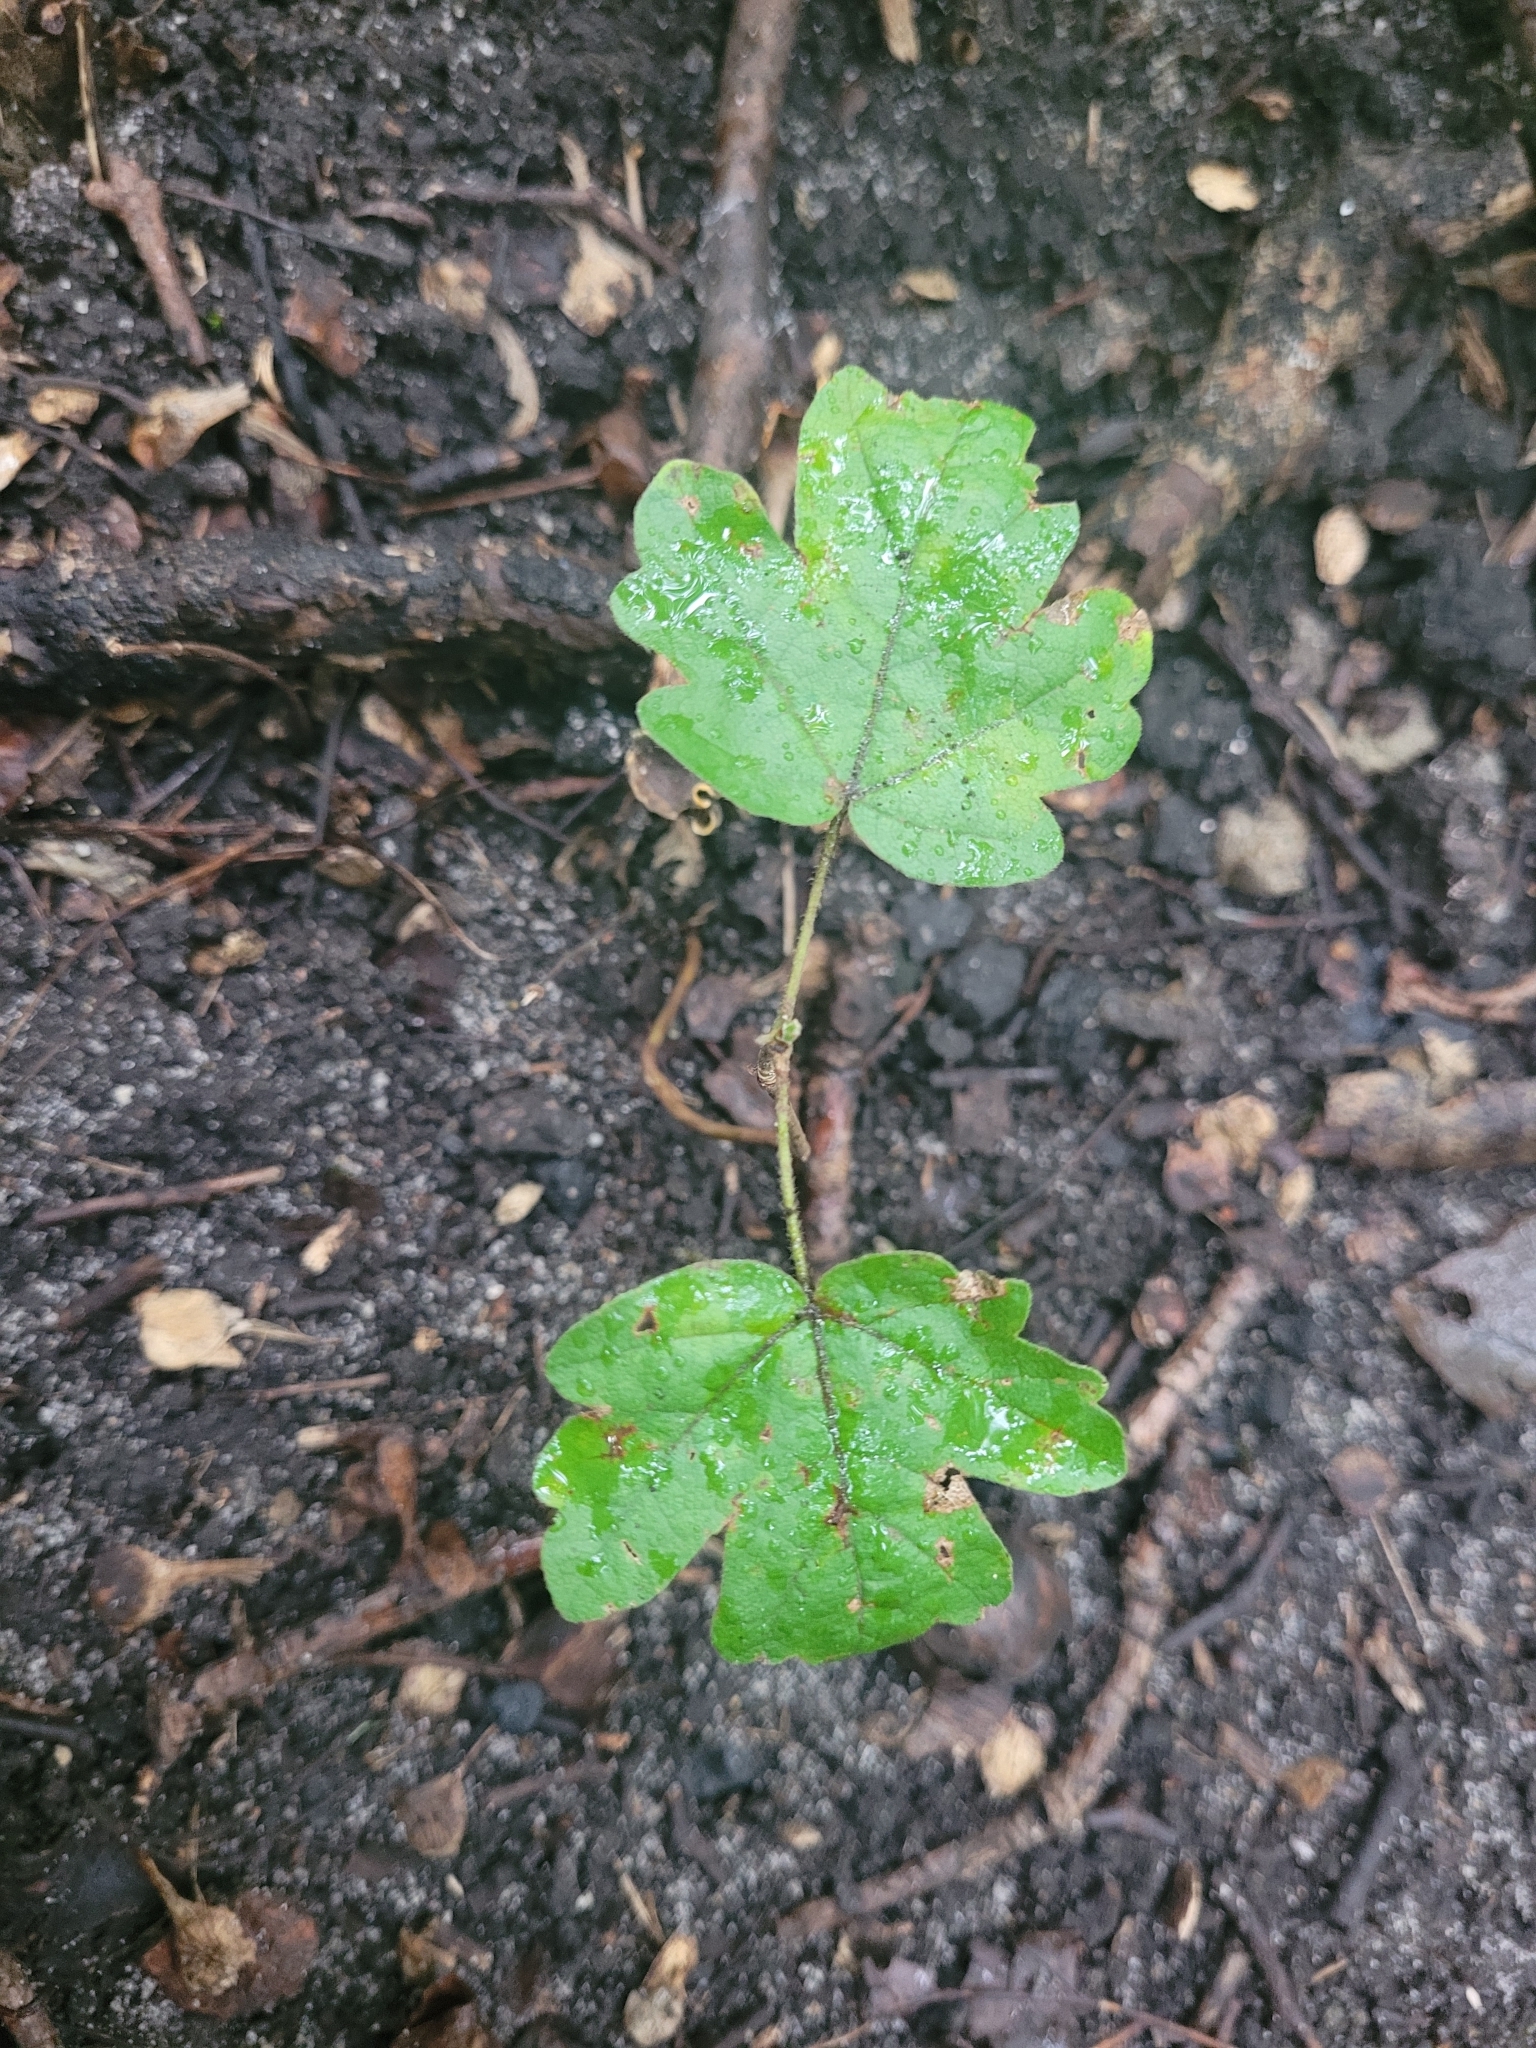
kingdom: Plantae
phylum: Tracheophyta
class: Magnoliopsida
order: Sapindales
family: Sapindaceae
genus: Acer
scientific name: Acer campestre
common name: Field maple
